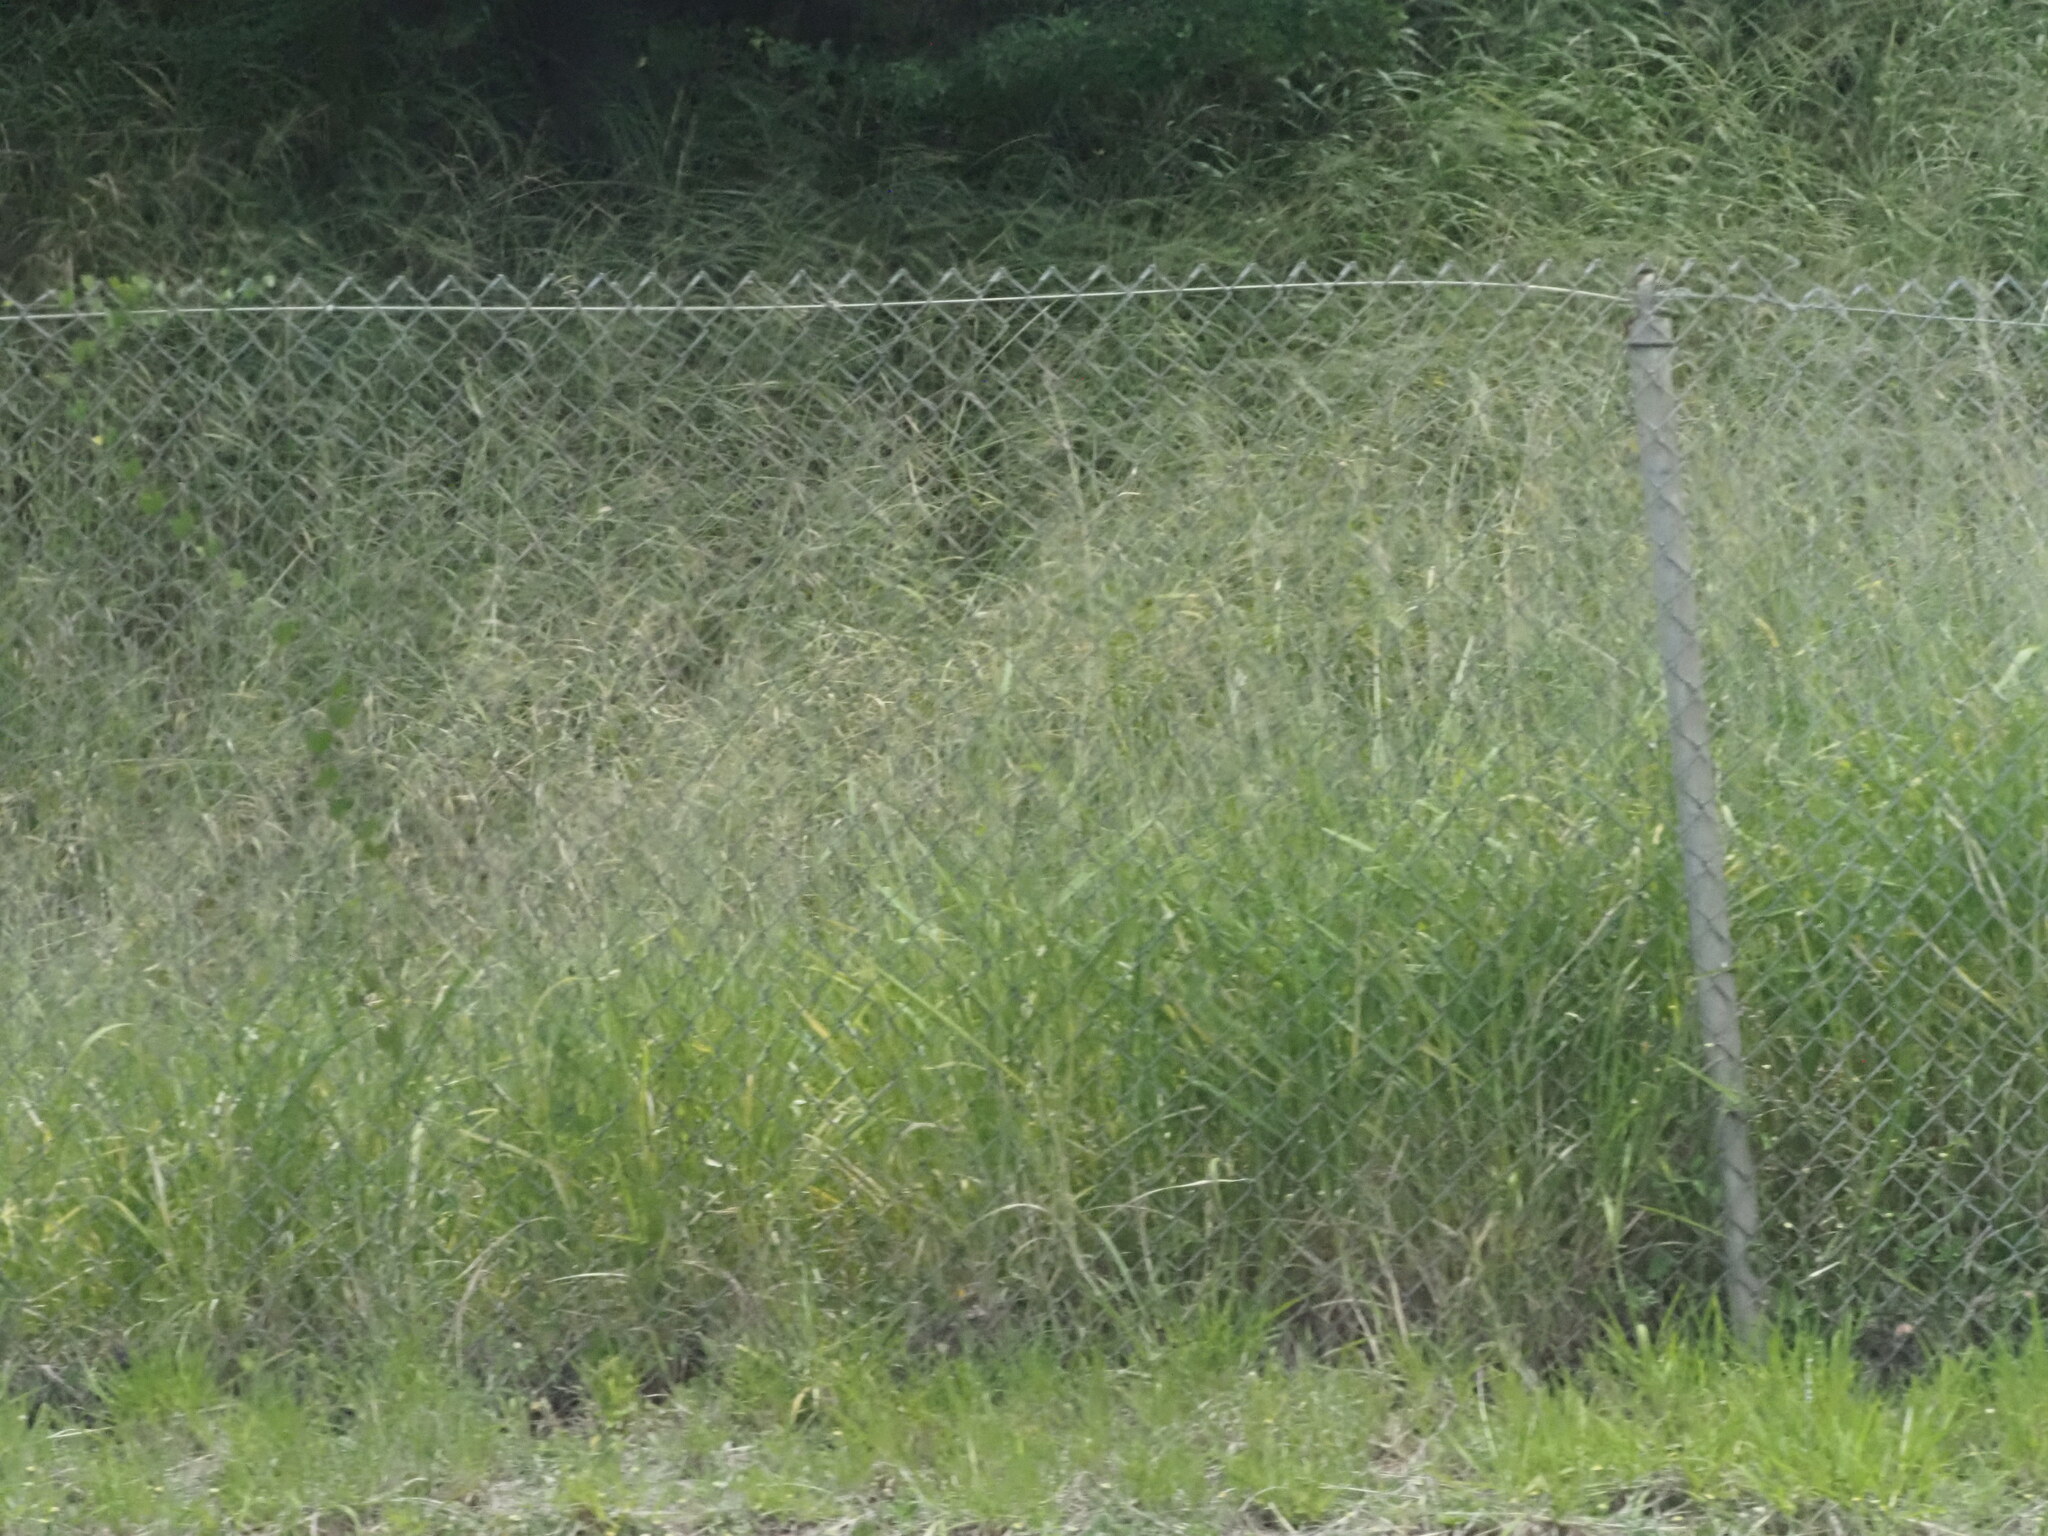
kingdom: Plantae
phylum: Tracheophyta
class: Liliopsida
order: Poales
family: Poaceae
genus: Megathyrsus
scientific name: Megathyrsus maximus
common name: Guineagrass
